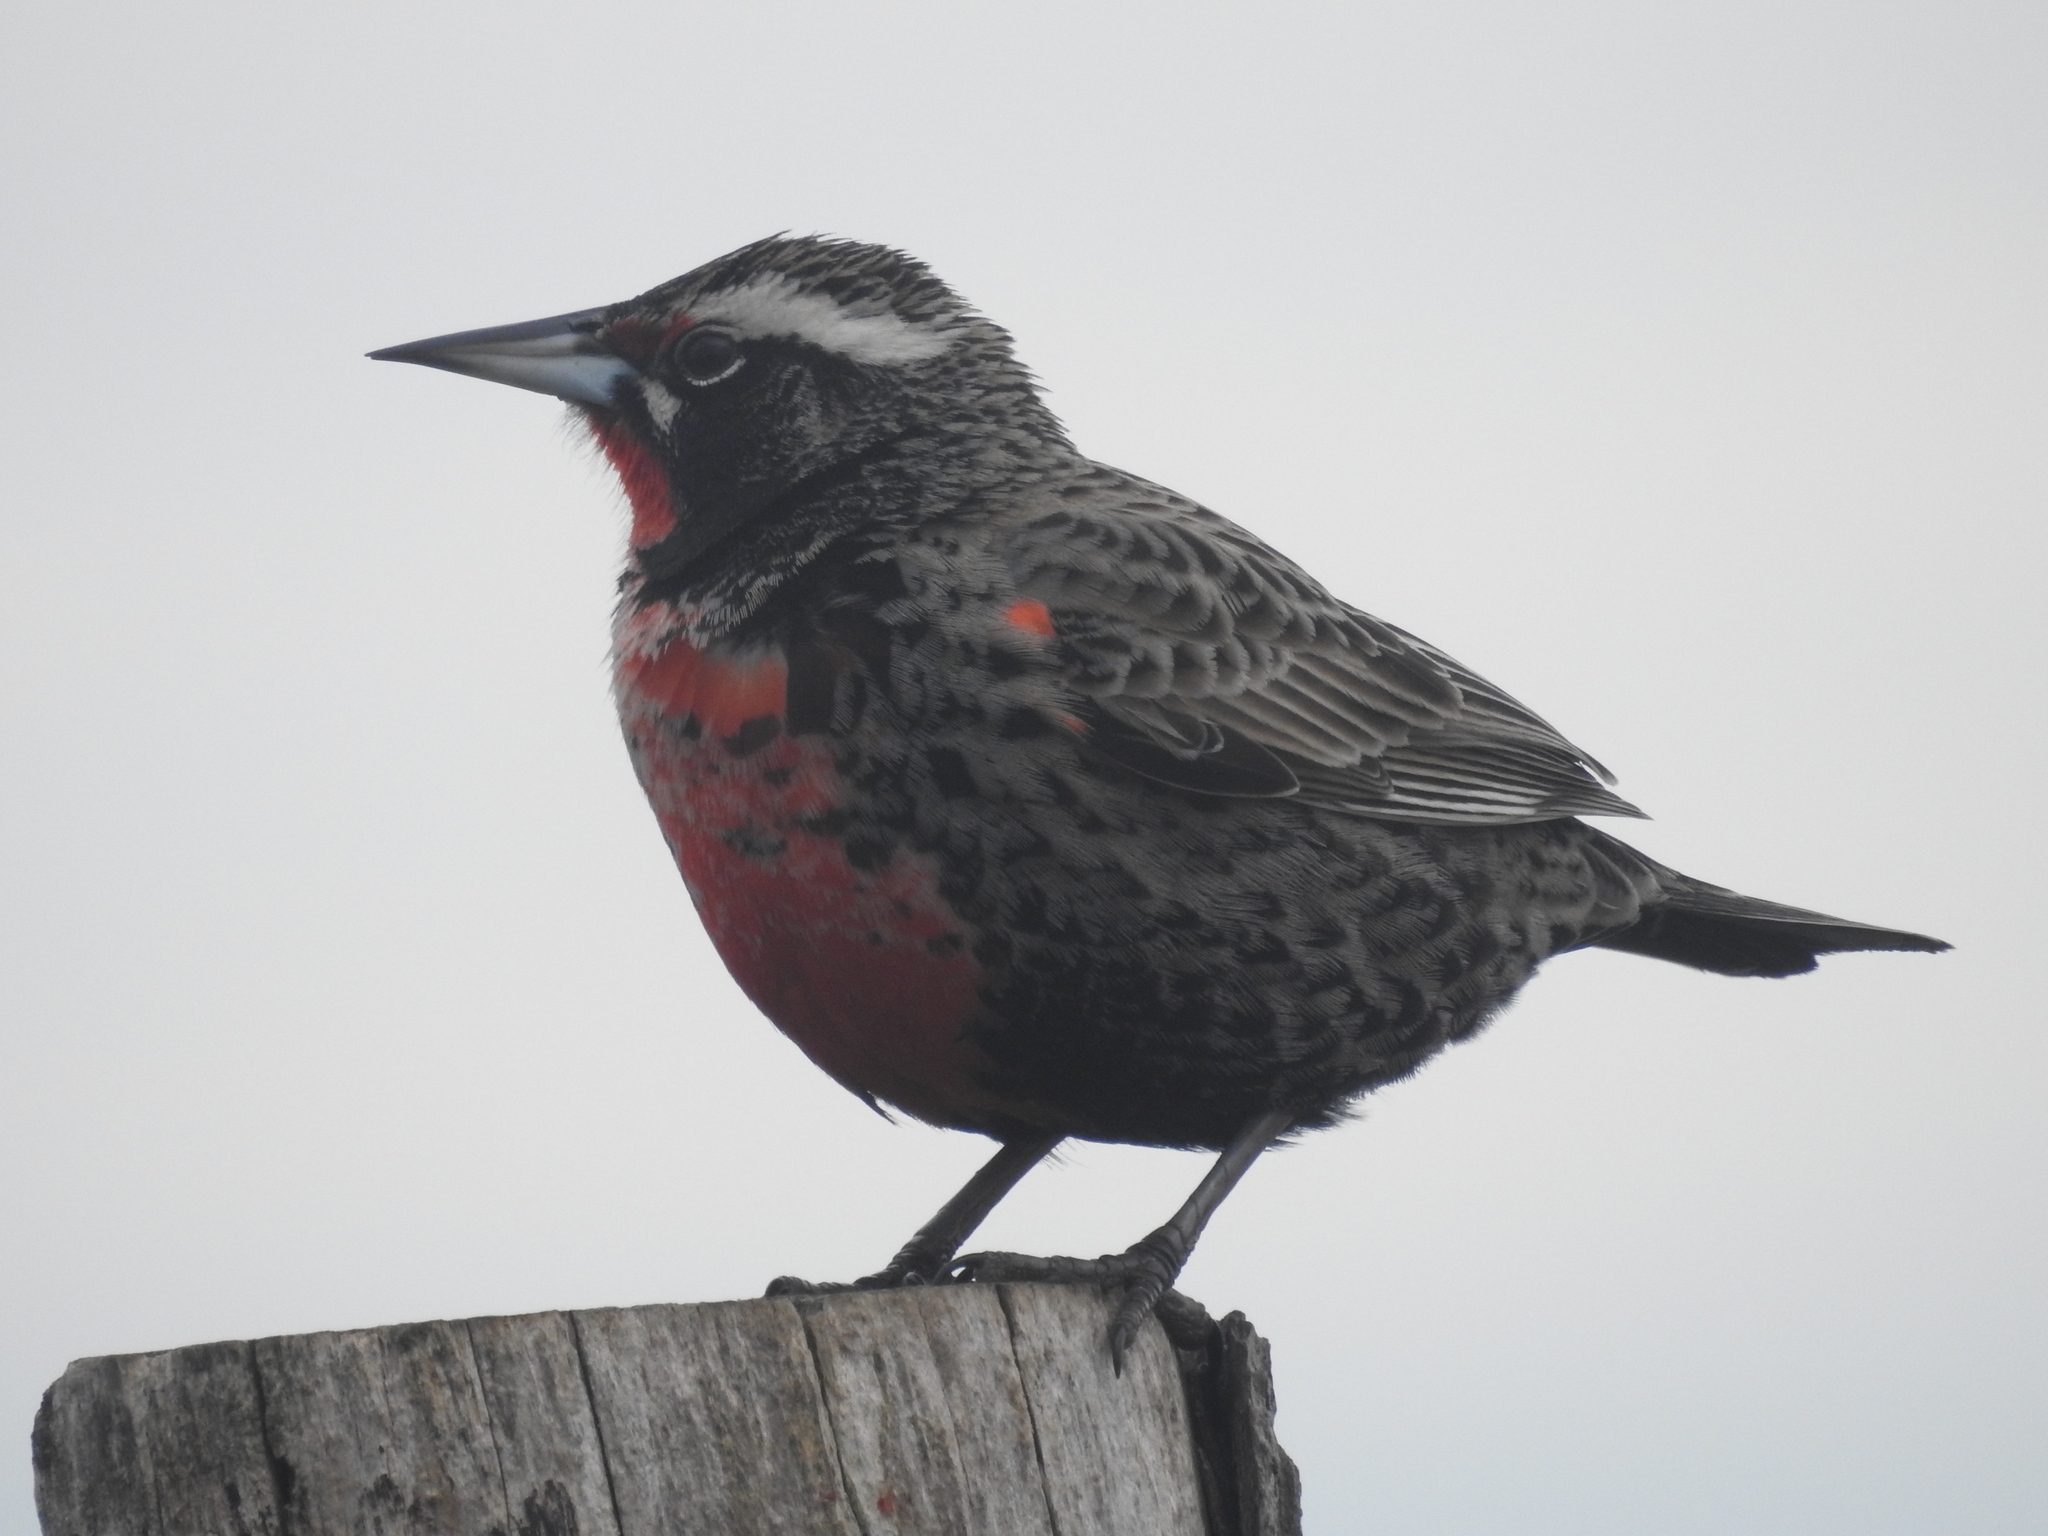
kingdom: Animalia
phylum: Chordata
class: Aves
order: Passeriformes
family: Icteridae
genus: Sturnella
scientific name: Sturnella loyca
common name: Long-tailed meadowlark
